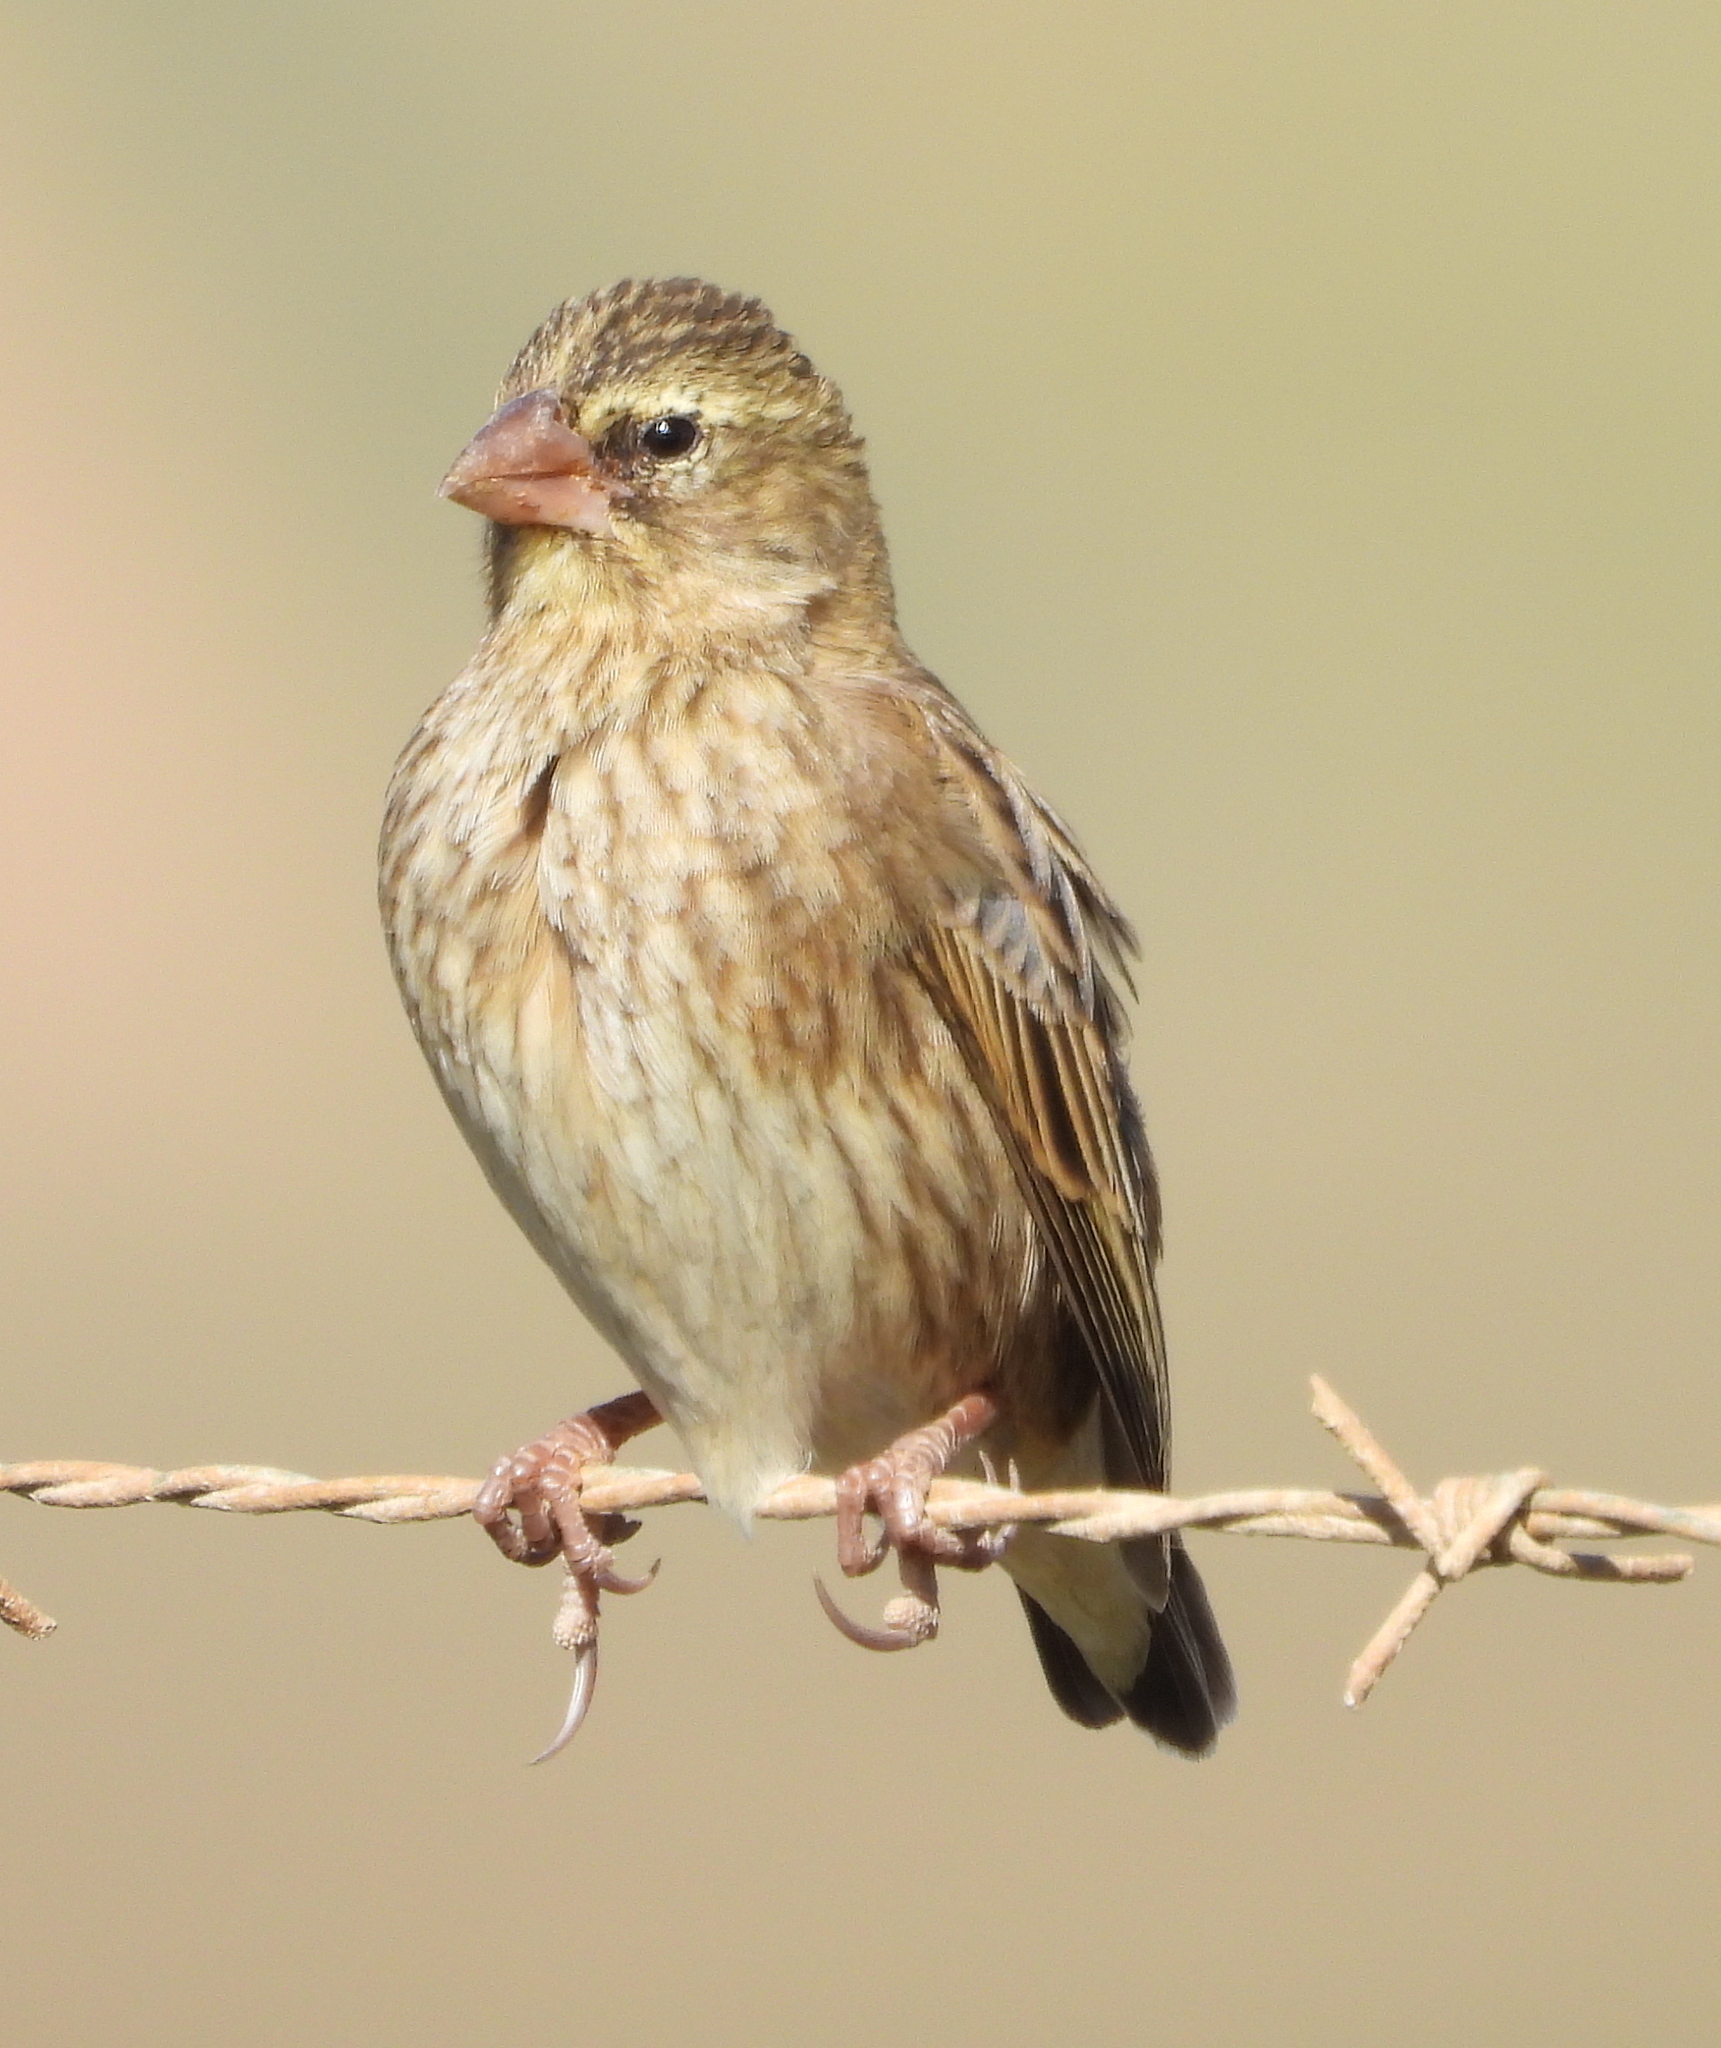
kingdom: Animalia
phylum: Chordata
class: Aves
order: Passeriformes
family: Ploceidae
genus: Euplectes
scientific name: Euplectes orix
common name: Southern red bishop
